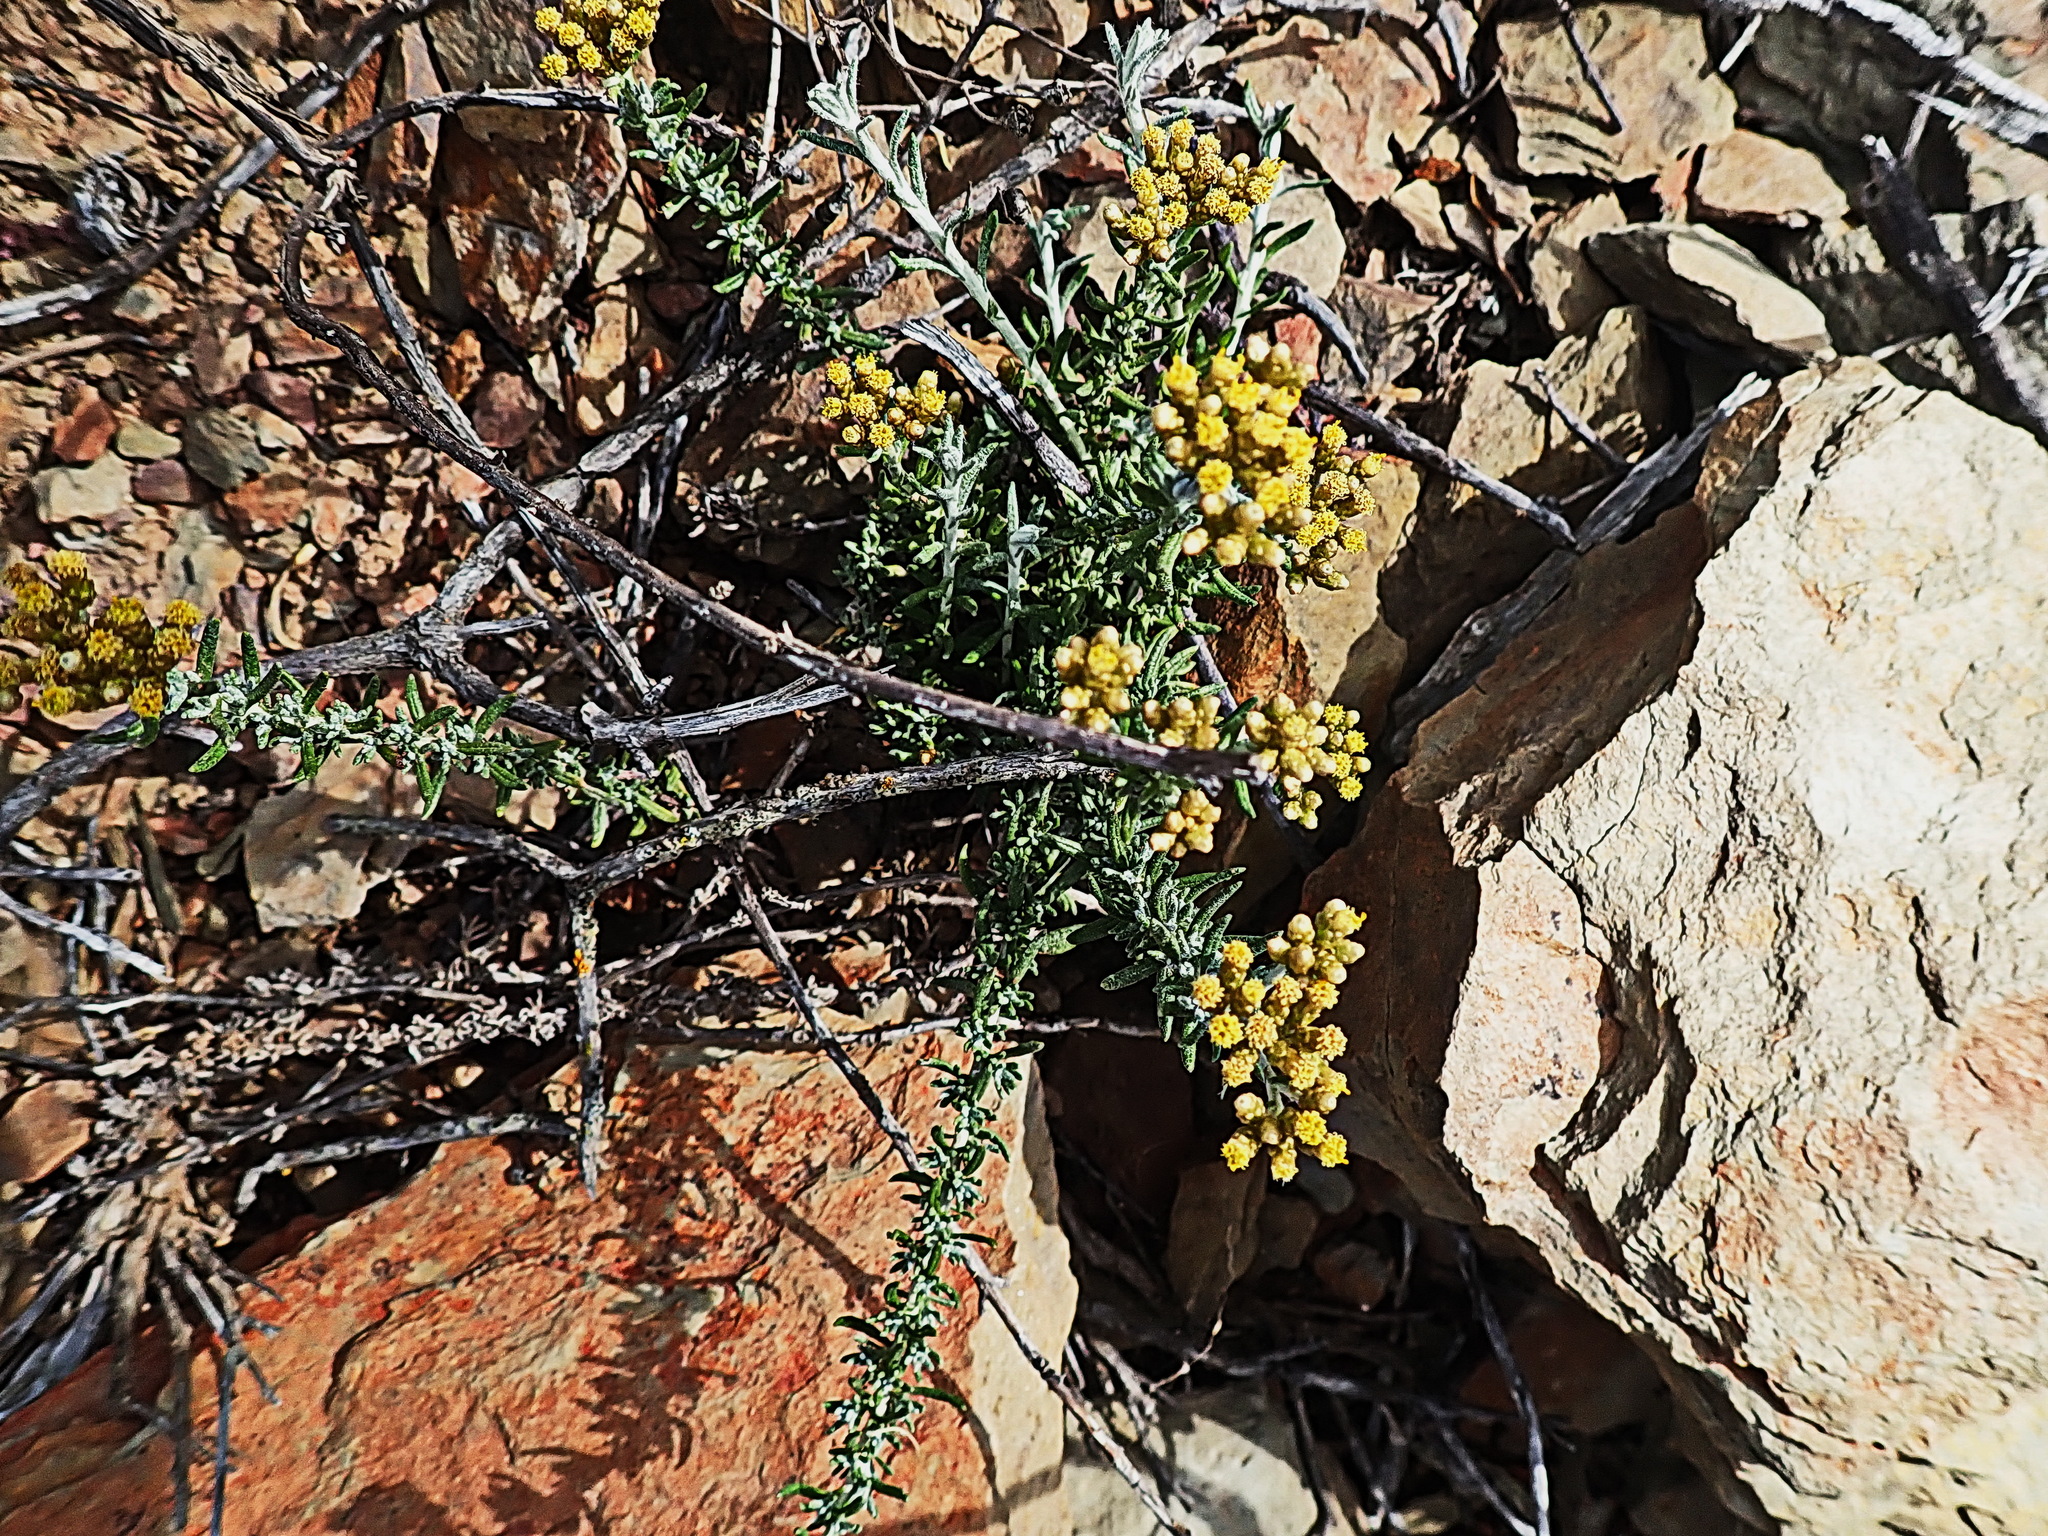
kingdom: Plantae
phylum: Tracheophyta
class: Magnoliopsida
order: Asterales
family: Asteraceae
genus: Helichrysum
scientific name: Helichrysum rosum
